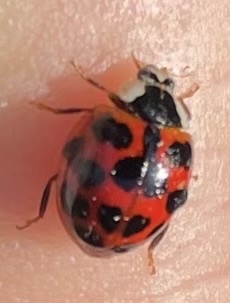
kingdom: Animalia
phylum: Arthropoda
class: Insecta
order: Coleoptera
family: Coccinellidae
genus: Harmonia
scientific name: Harmonia axyridis
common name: Harlequin ladybird
